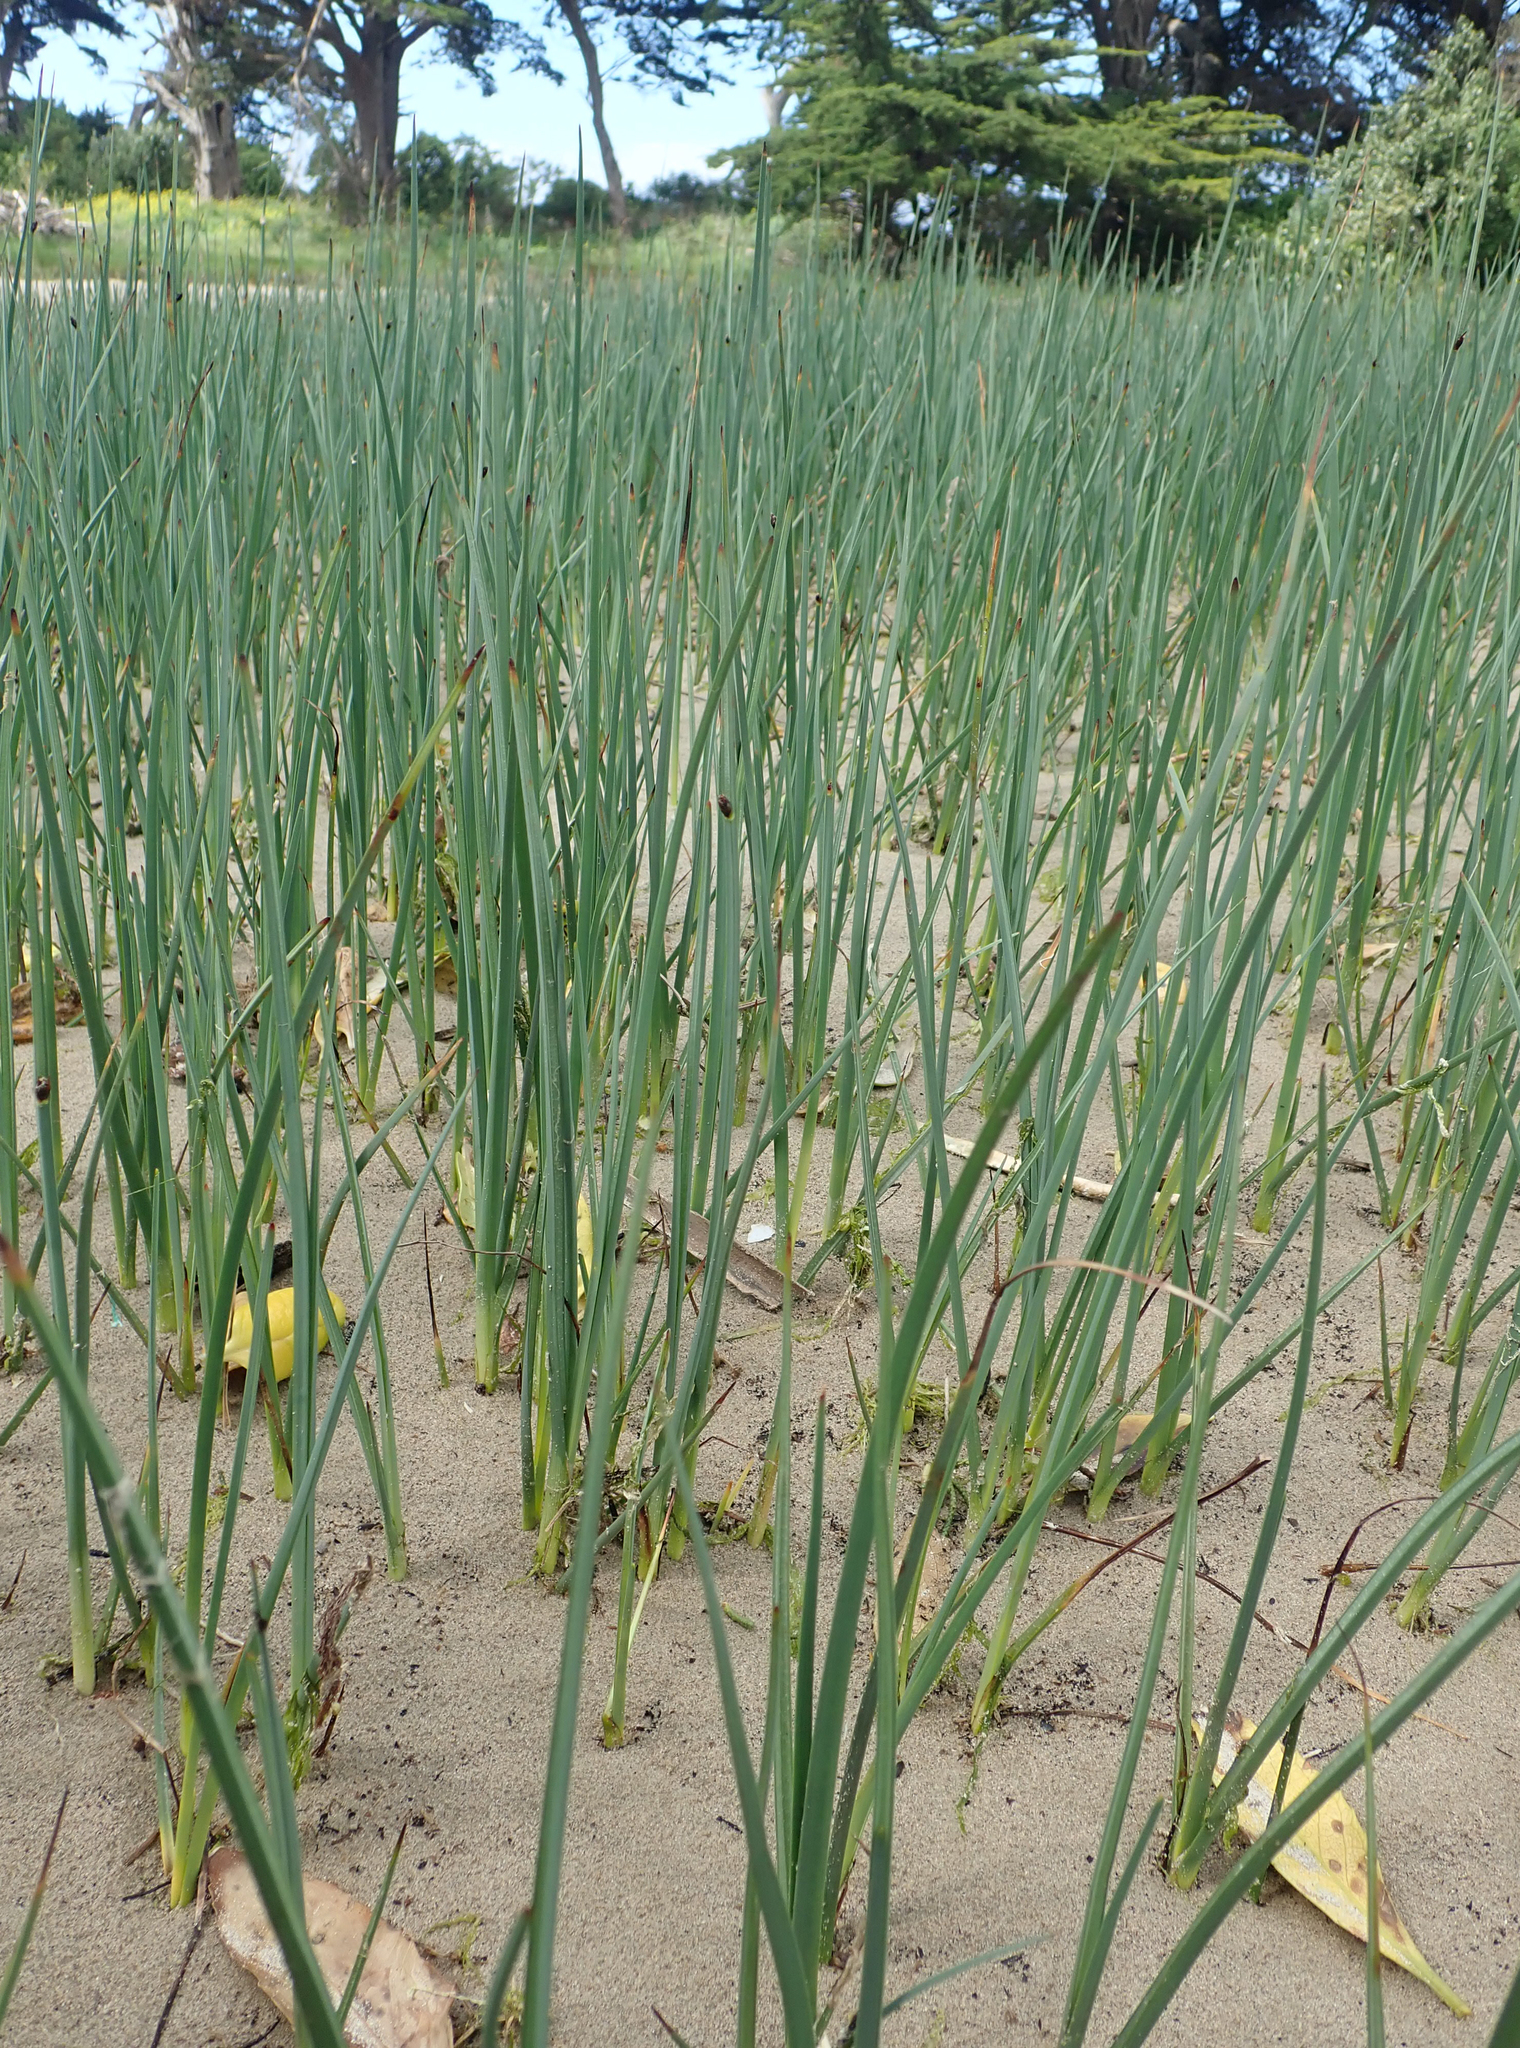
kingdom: Plantae
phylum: Tracheophyta
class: Liliopsida
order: Poales
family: Cyperaceae
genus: Schoenoplectus
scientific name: Schoenoplectus pungens
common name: Sharp club-rush
